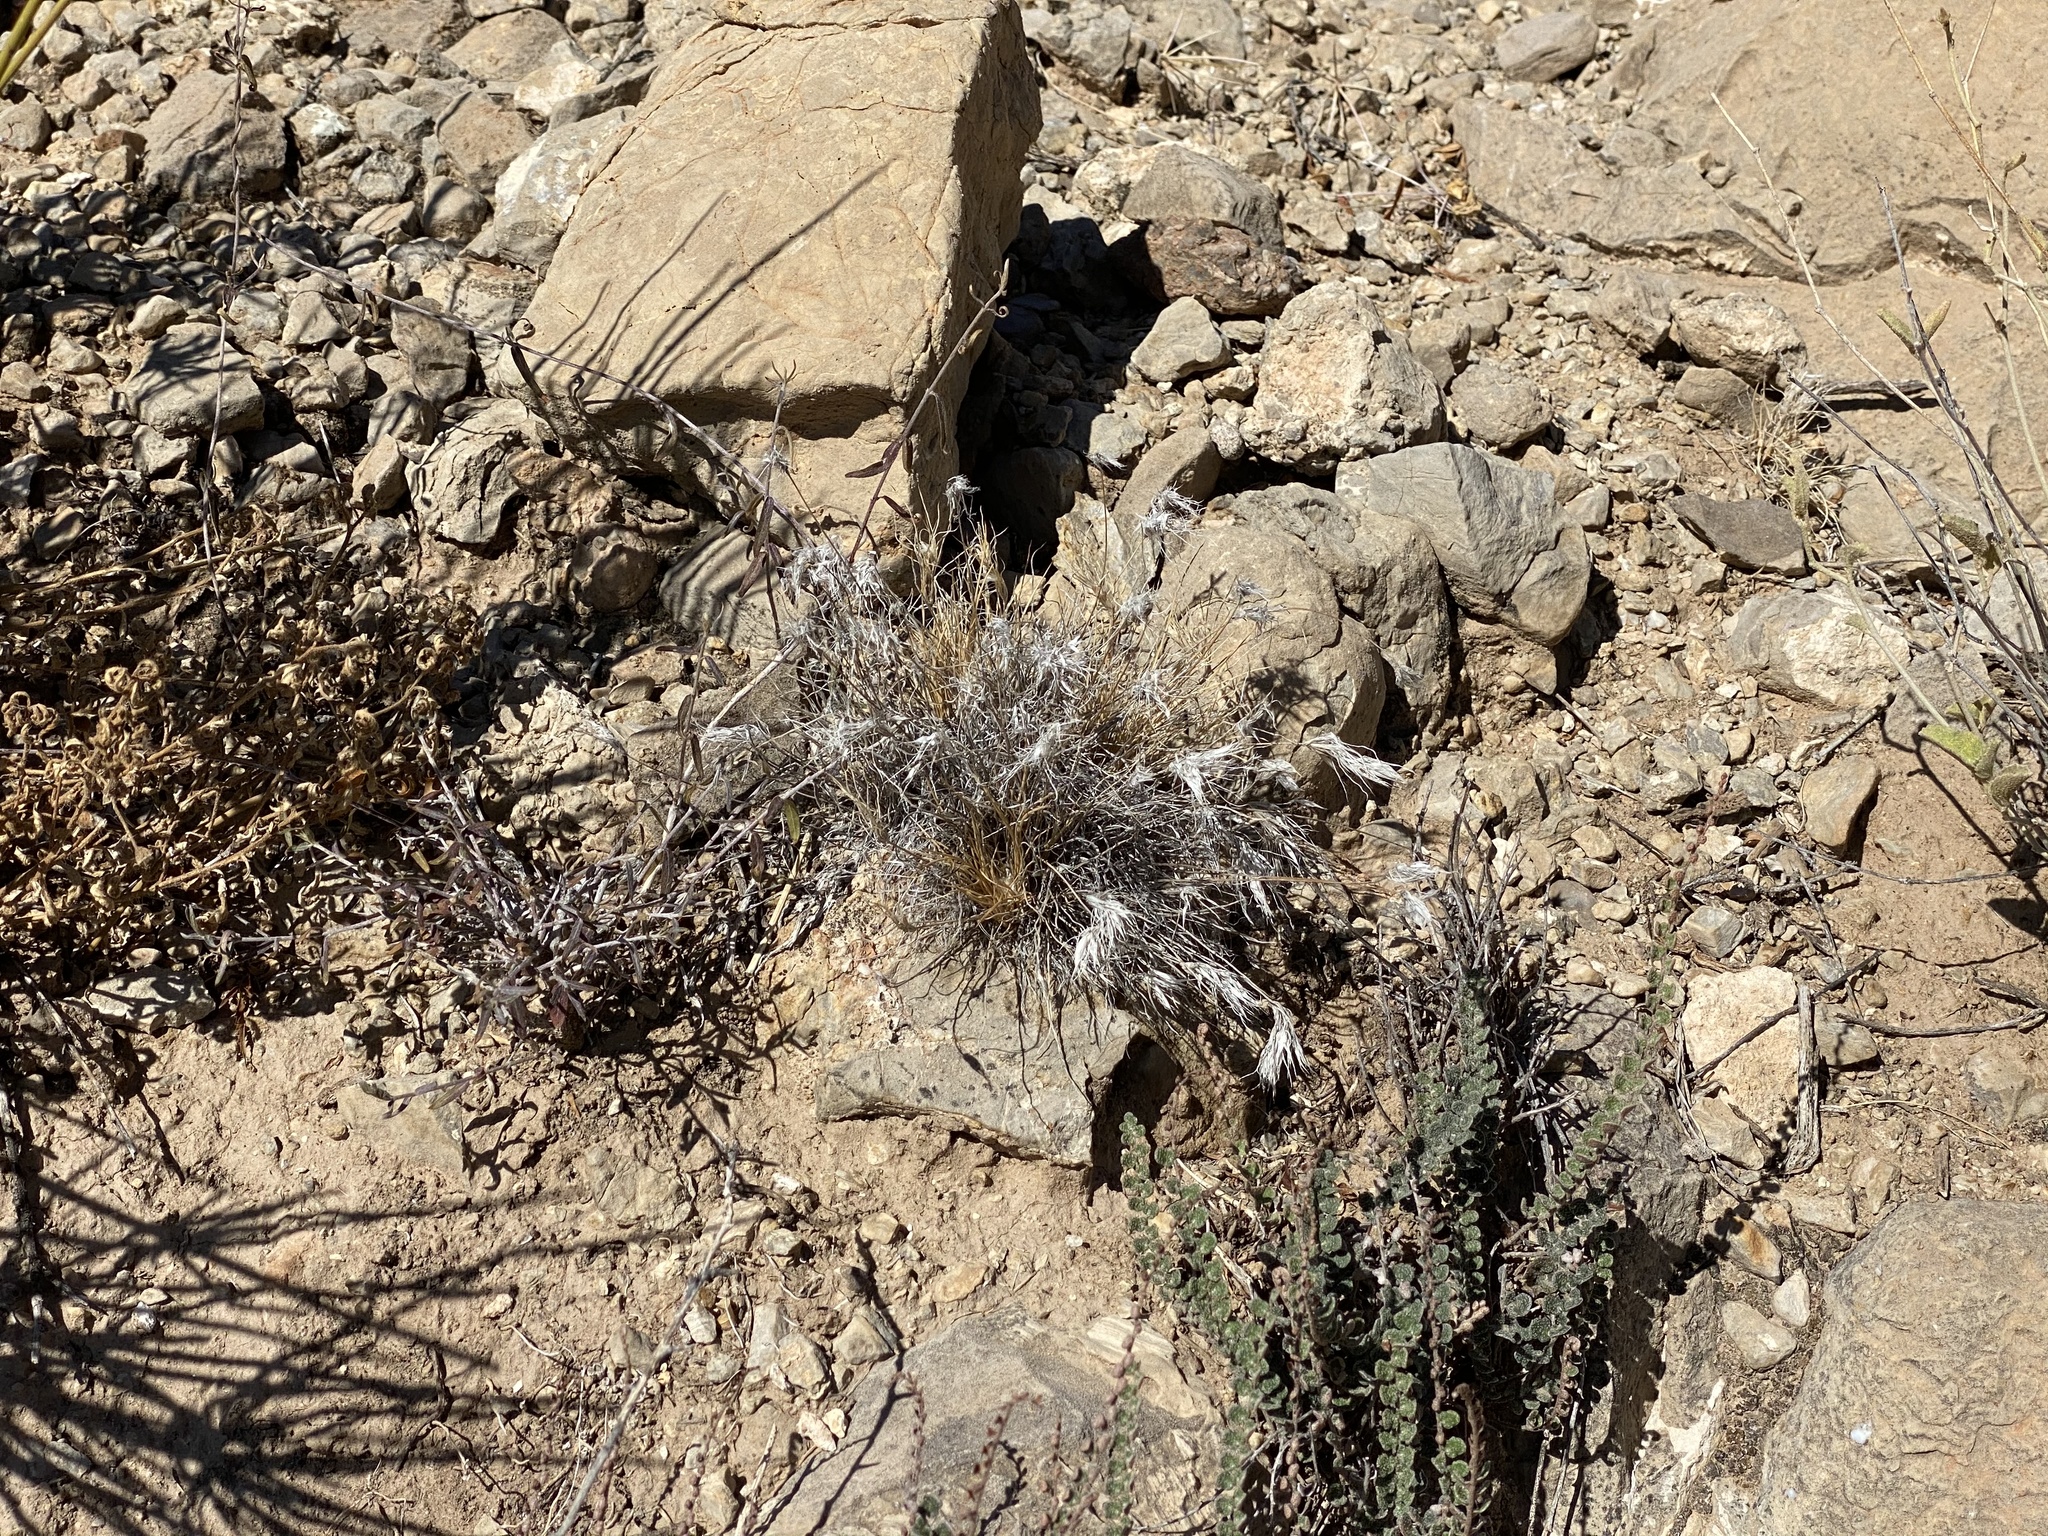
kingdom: Plantae
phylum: Tracheophyta
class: Liliopsida
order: Poales
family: Poaceae
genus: Dasyochloa
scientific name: Dasyochloa pulchella
